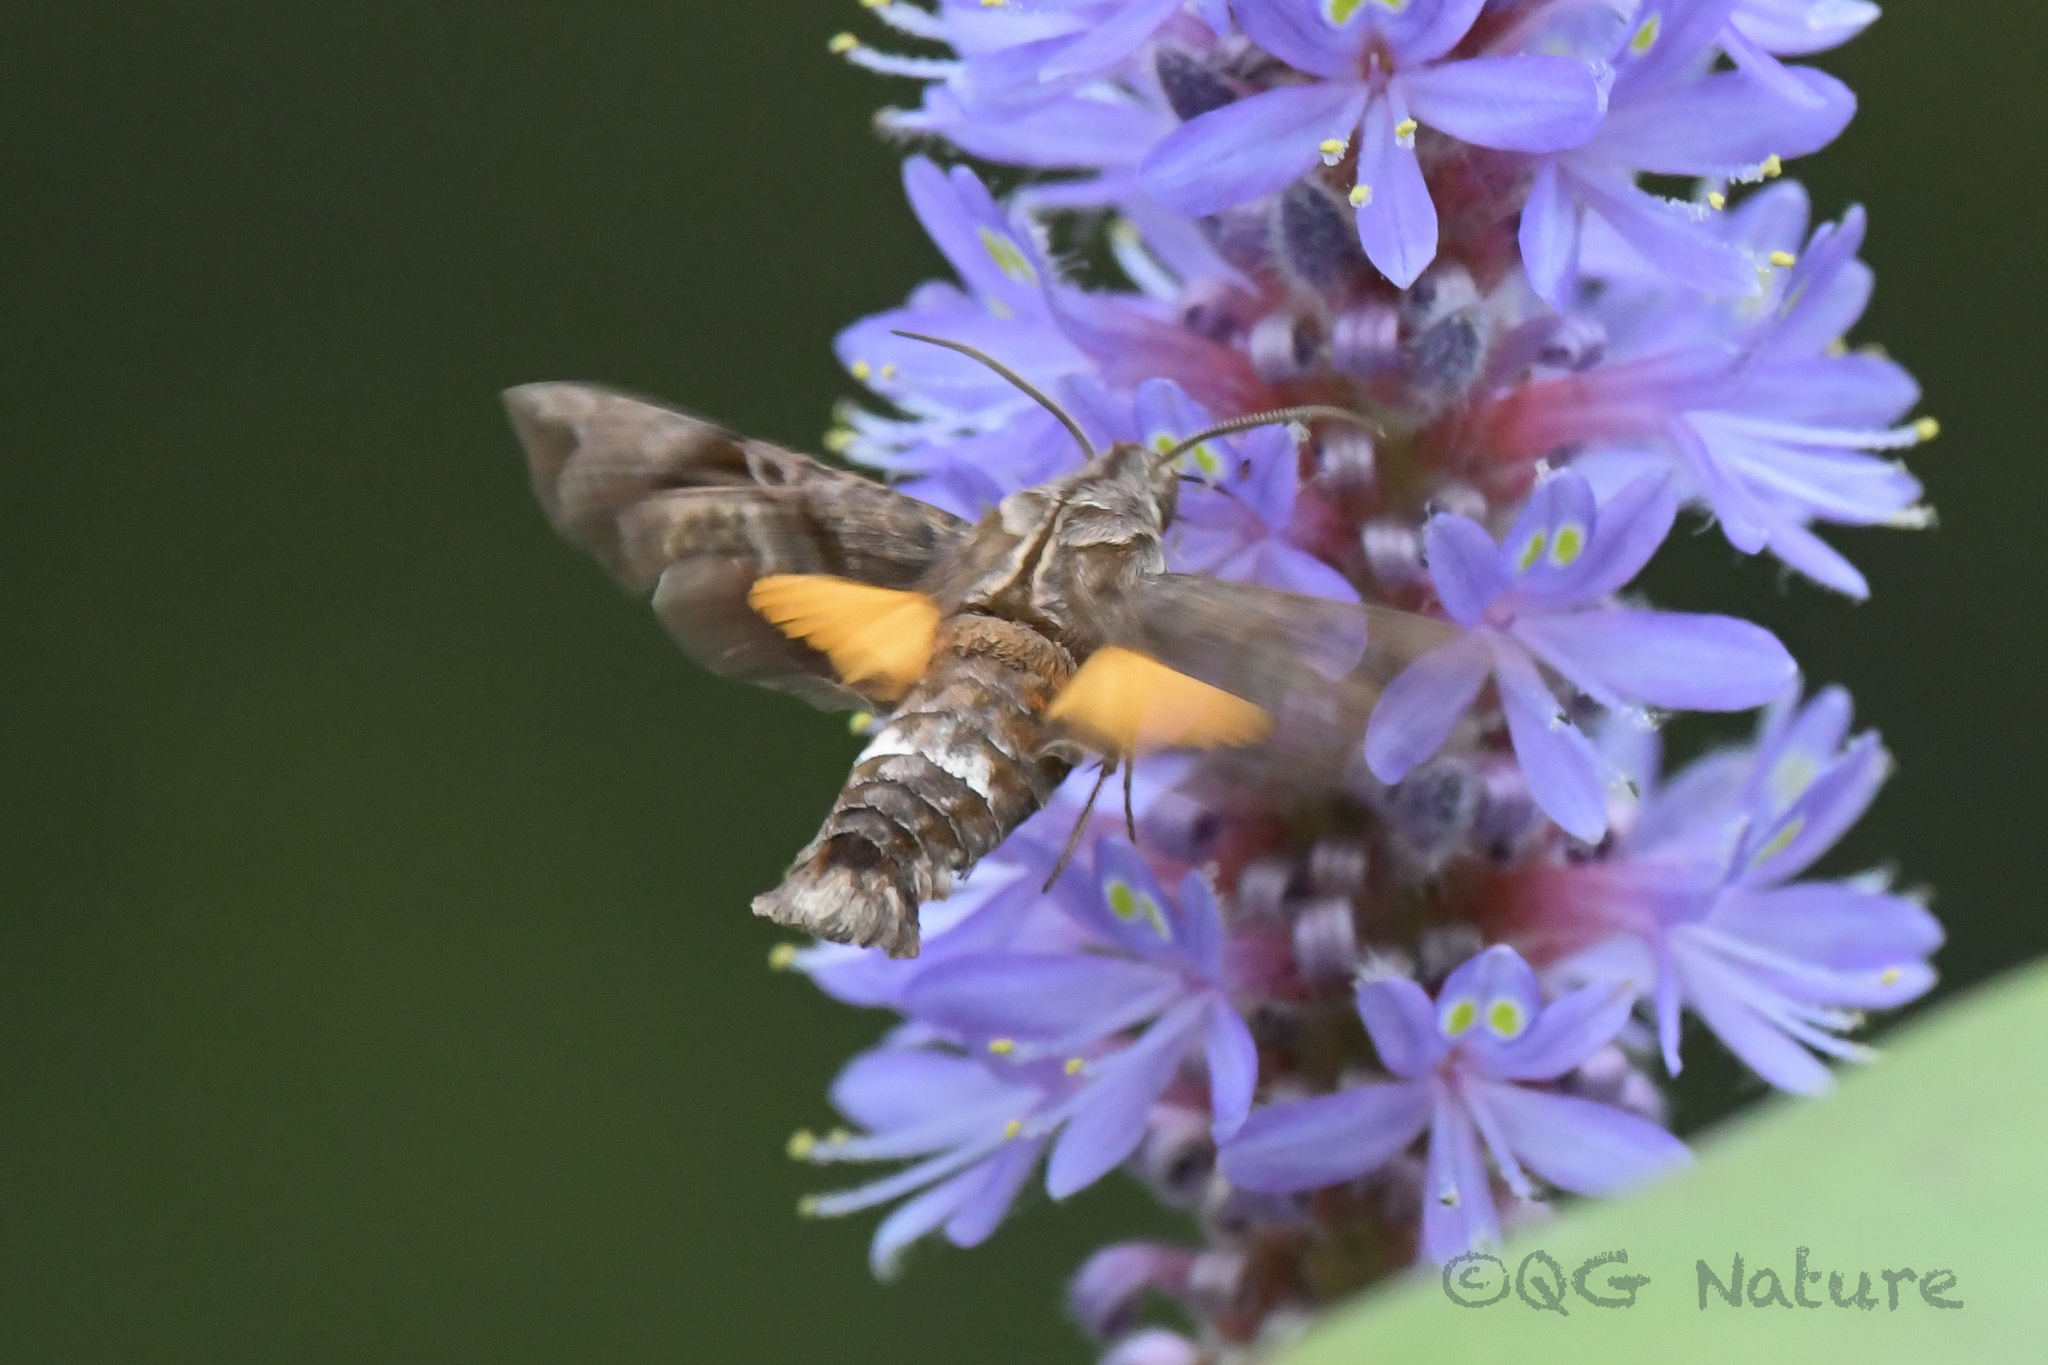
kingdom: Animalia
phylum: Arthropoda
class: Insecta
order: Lepidoptera
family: Sphingidae
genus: Neogurelca
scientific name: Neogurelca hyas
